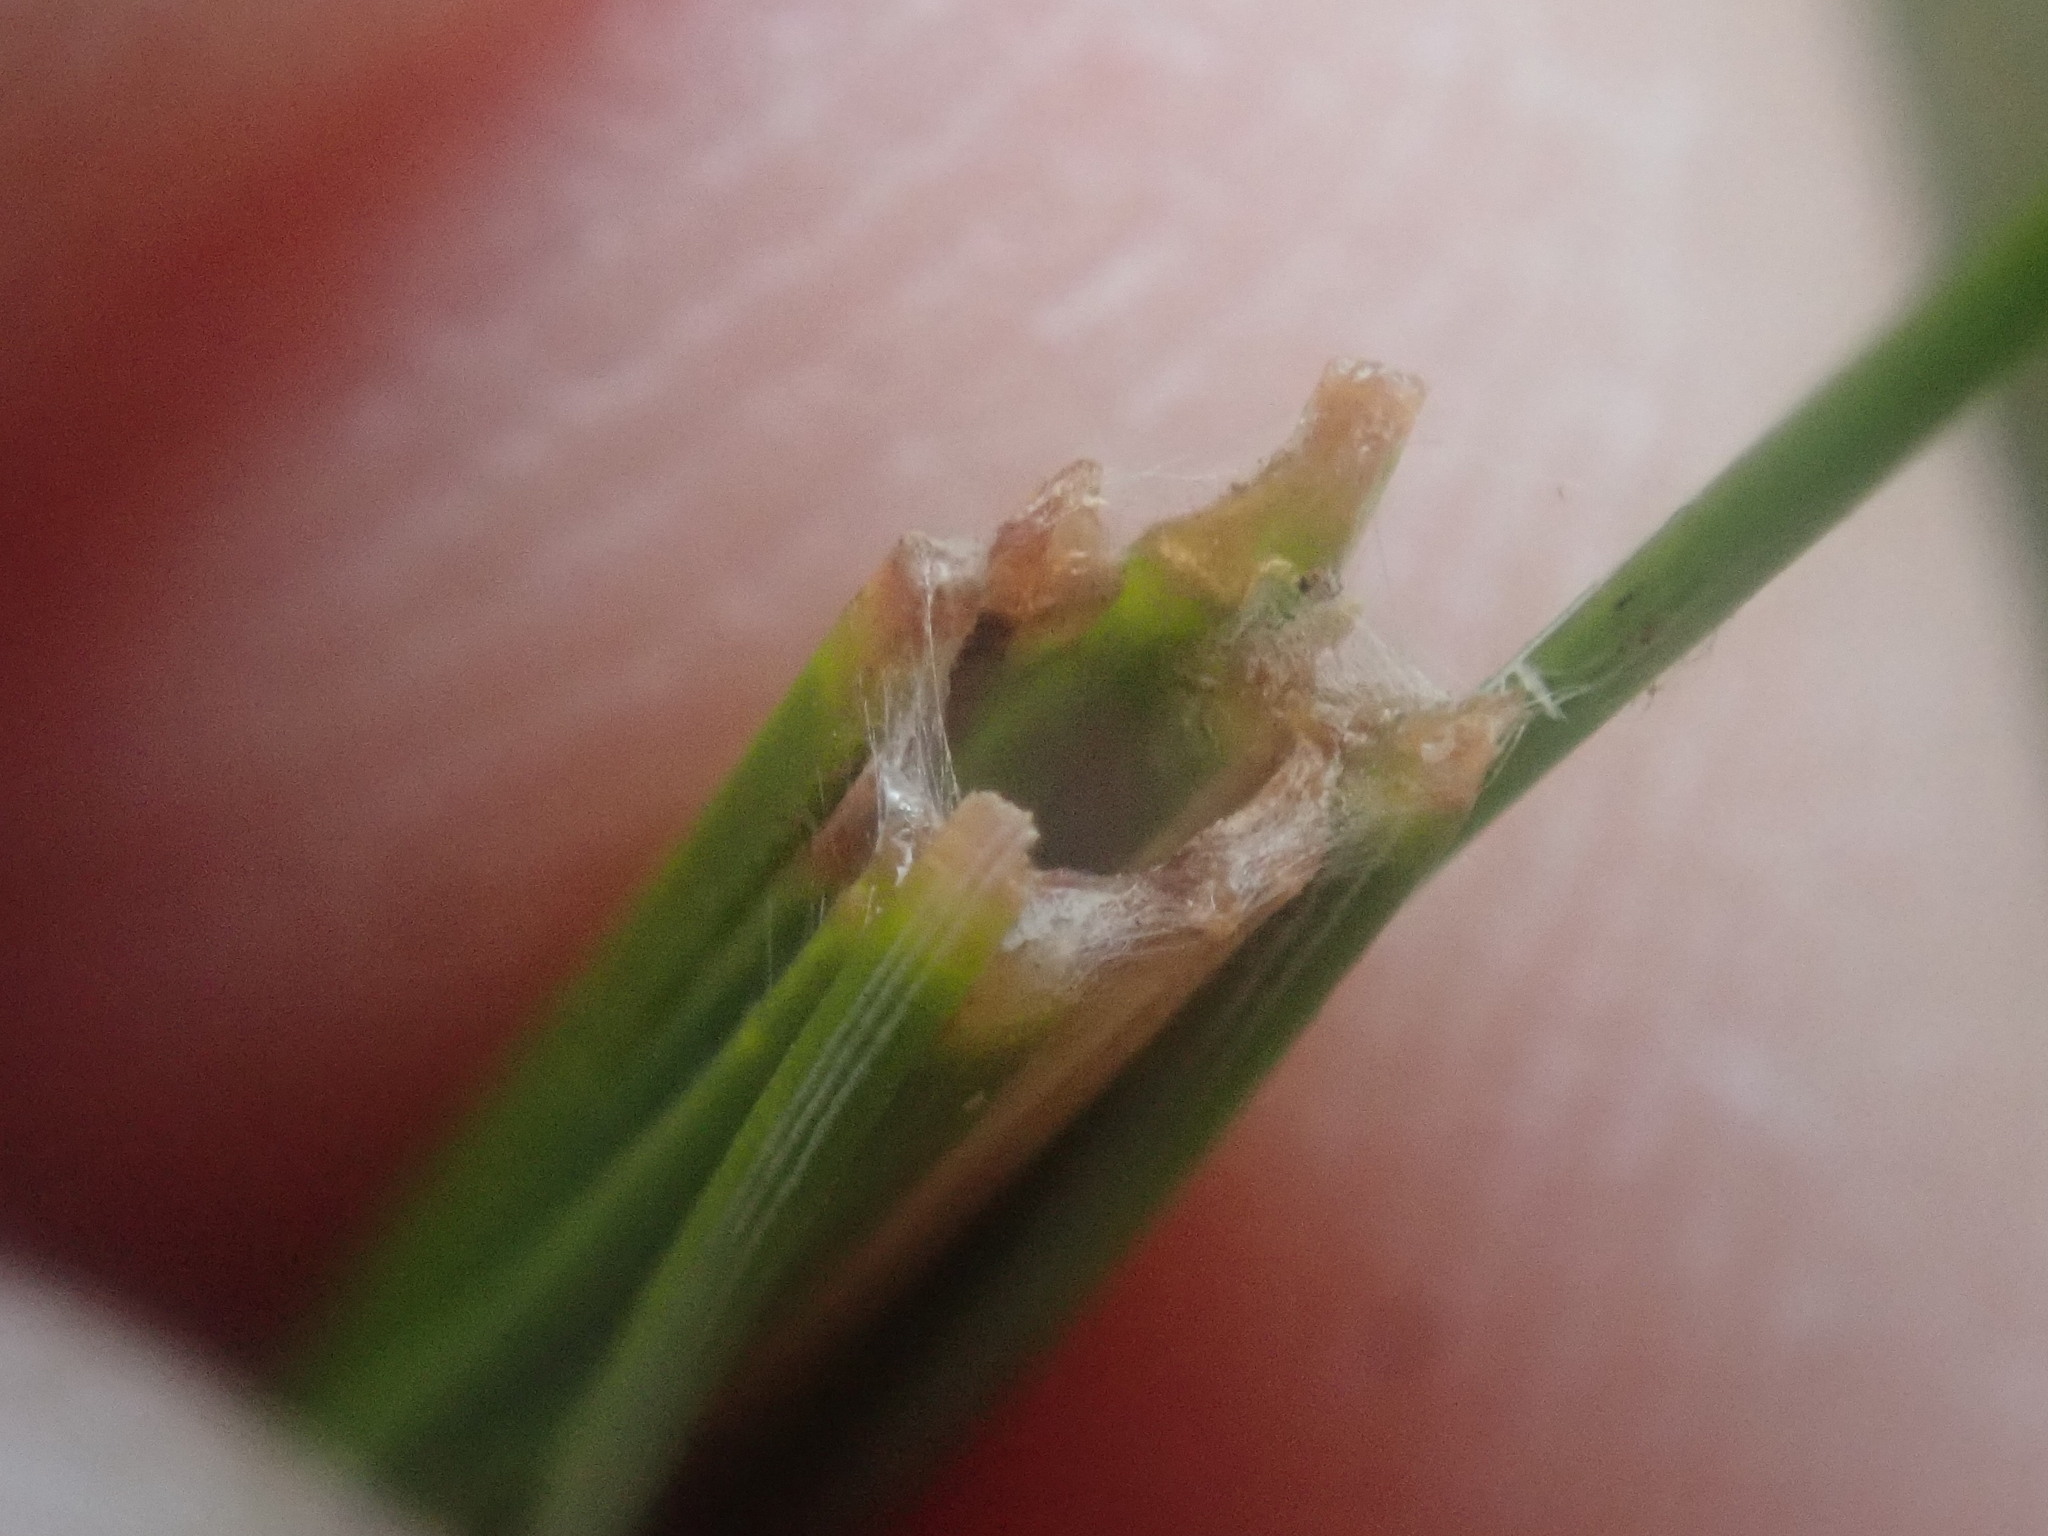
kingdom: Animalia
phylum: Arthropoda
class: Insecta
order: Lepidoptera
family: Tortricidae
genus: Argyrotaenia
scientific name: Argyrotaenia pinatubana
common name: Pine tube moth
